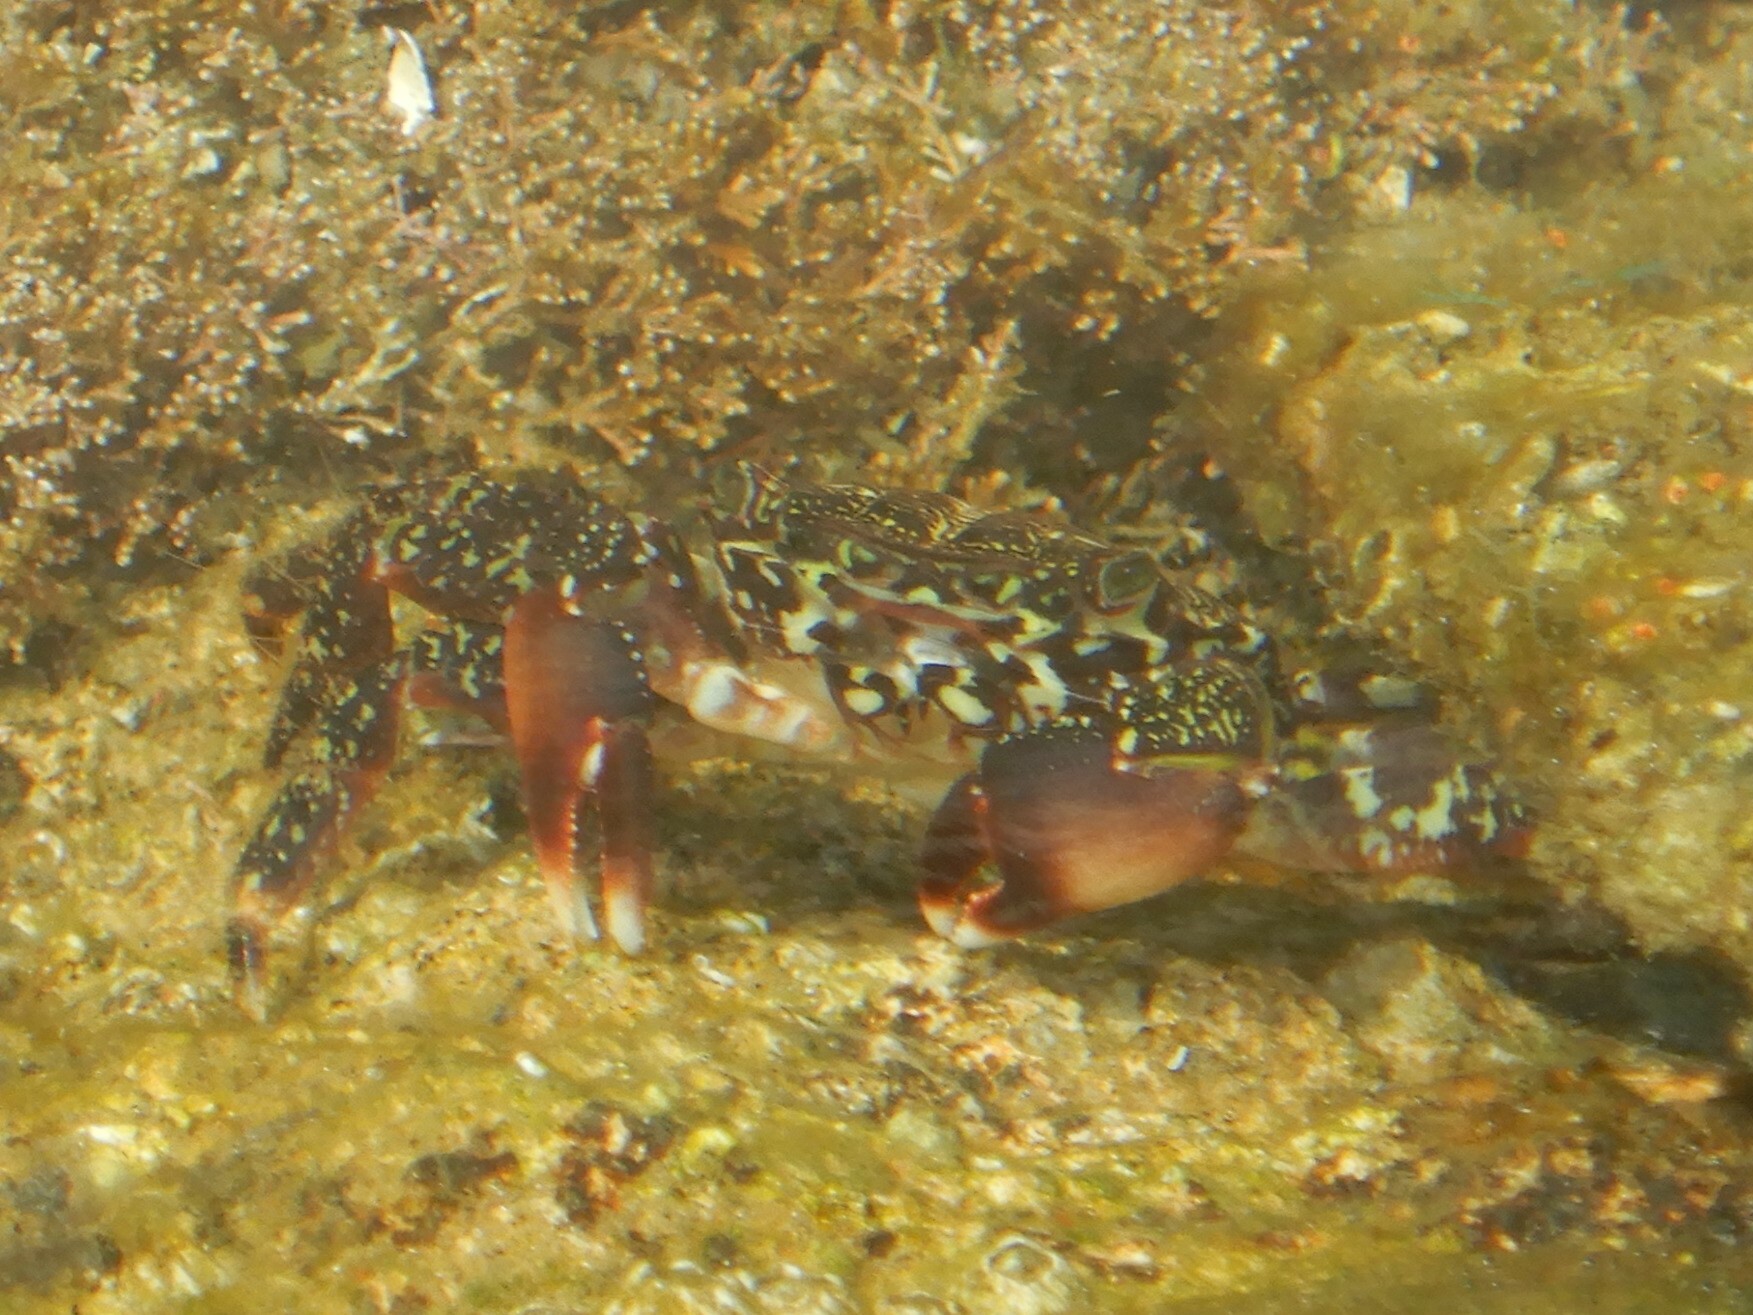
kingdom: Animalia
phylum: Arthropoda
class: Malacostraca
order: Decapoda
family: Grapsidae
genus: Pachygrapsus
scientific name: Pachygrapsus marmoratus
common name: Marbled rock crab
